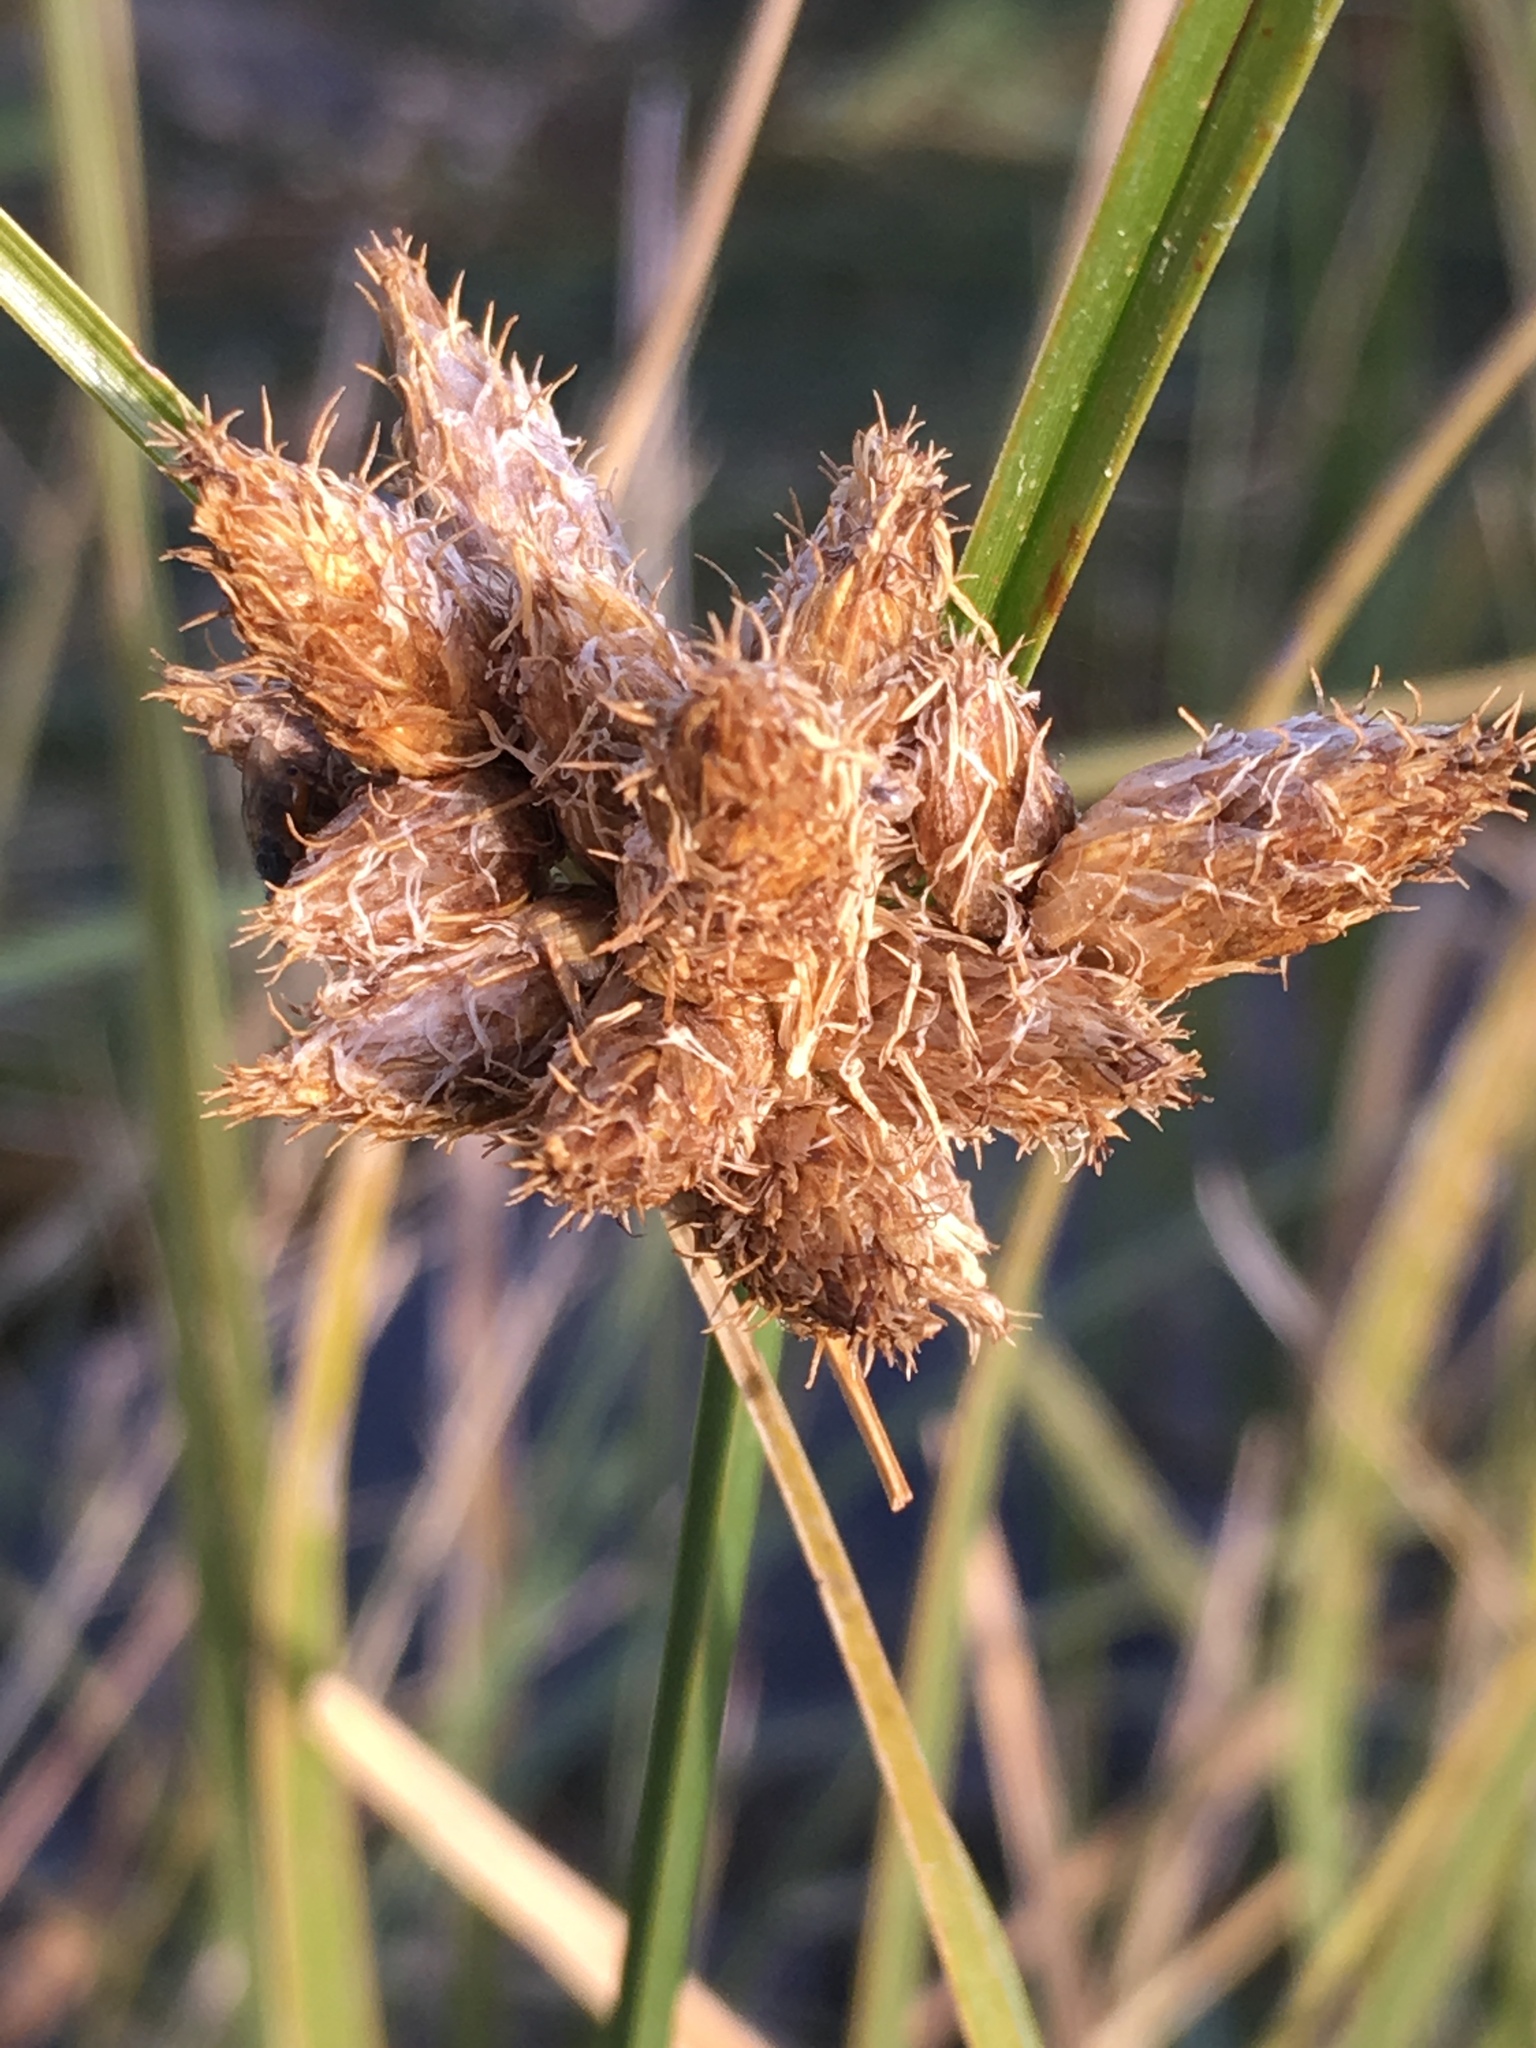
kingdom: Plantae
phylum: Tracheophyta
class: Liliopsida
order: Poales
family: Cyperaceae
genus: Bolboschoenus
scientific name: Bolboschoenus maritimus
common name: Sea club-rush
